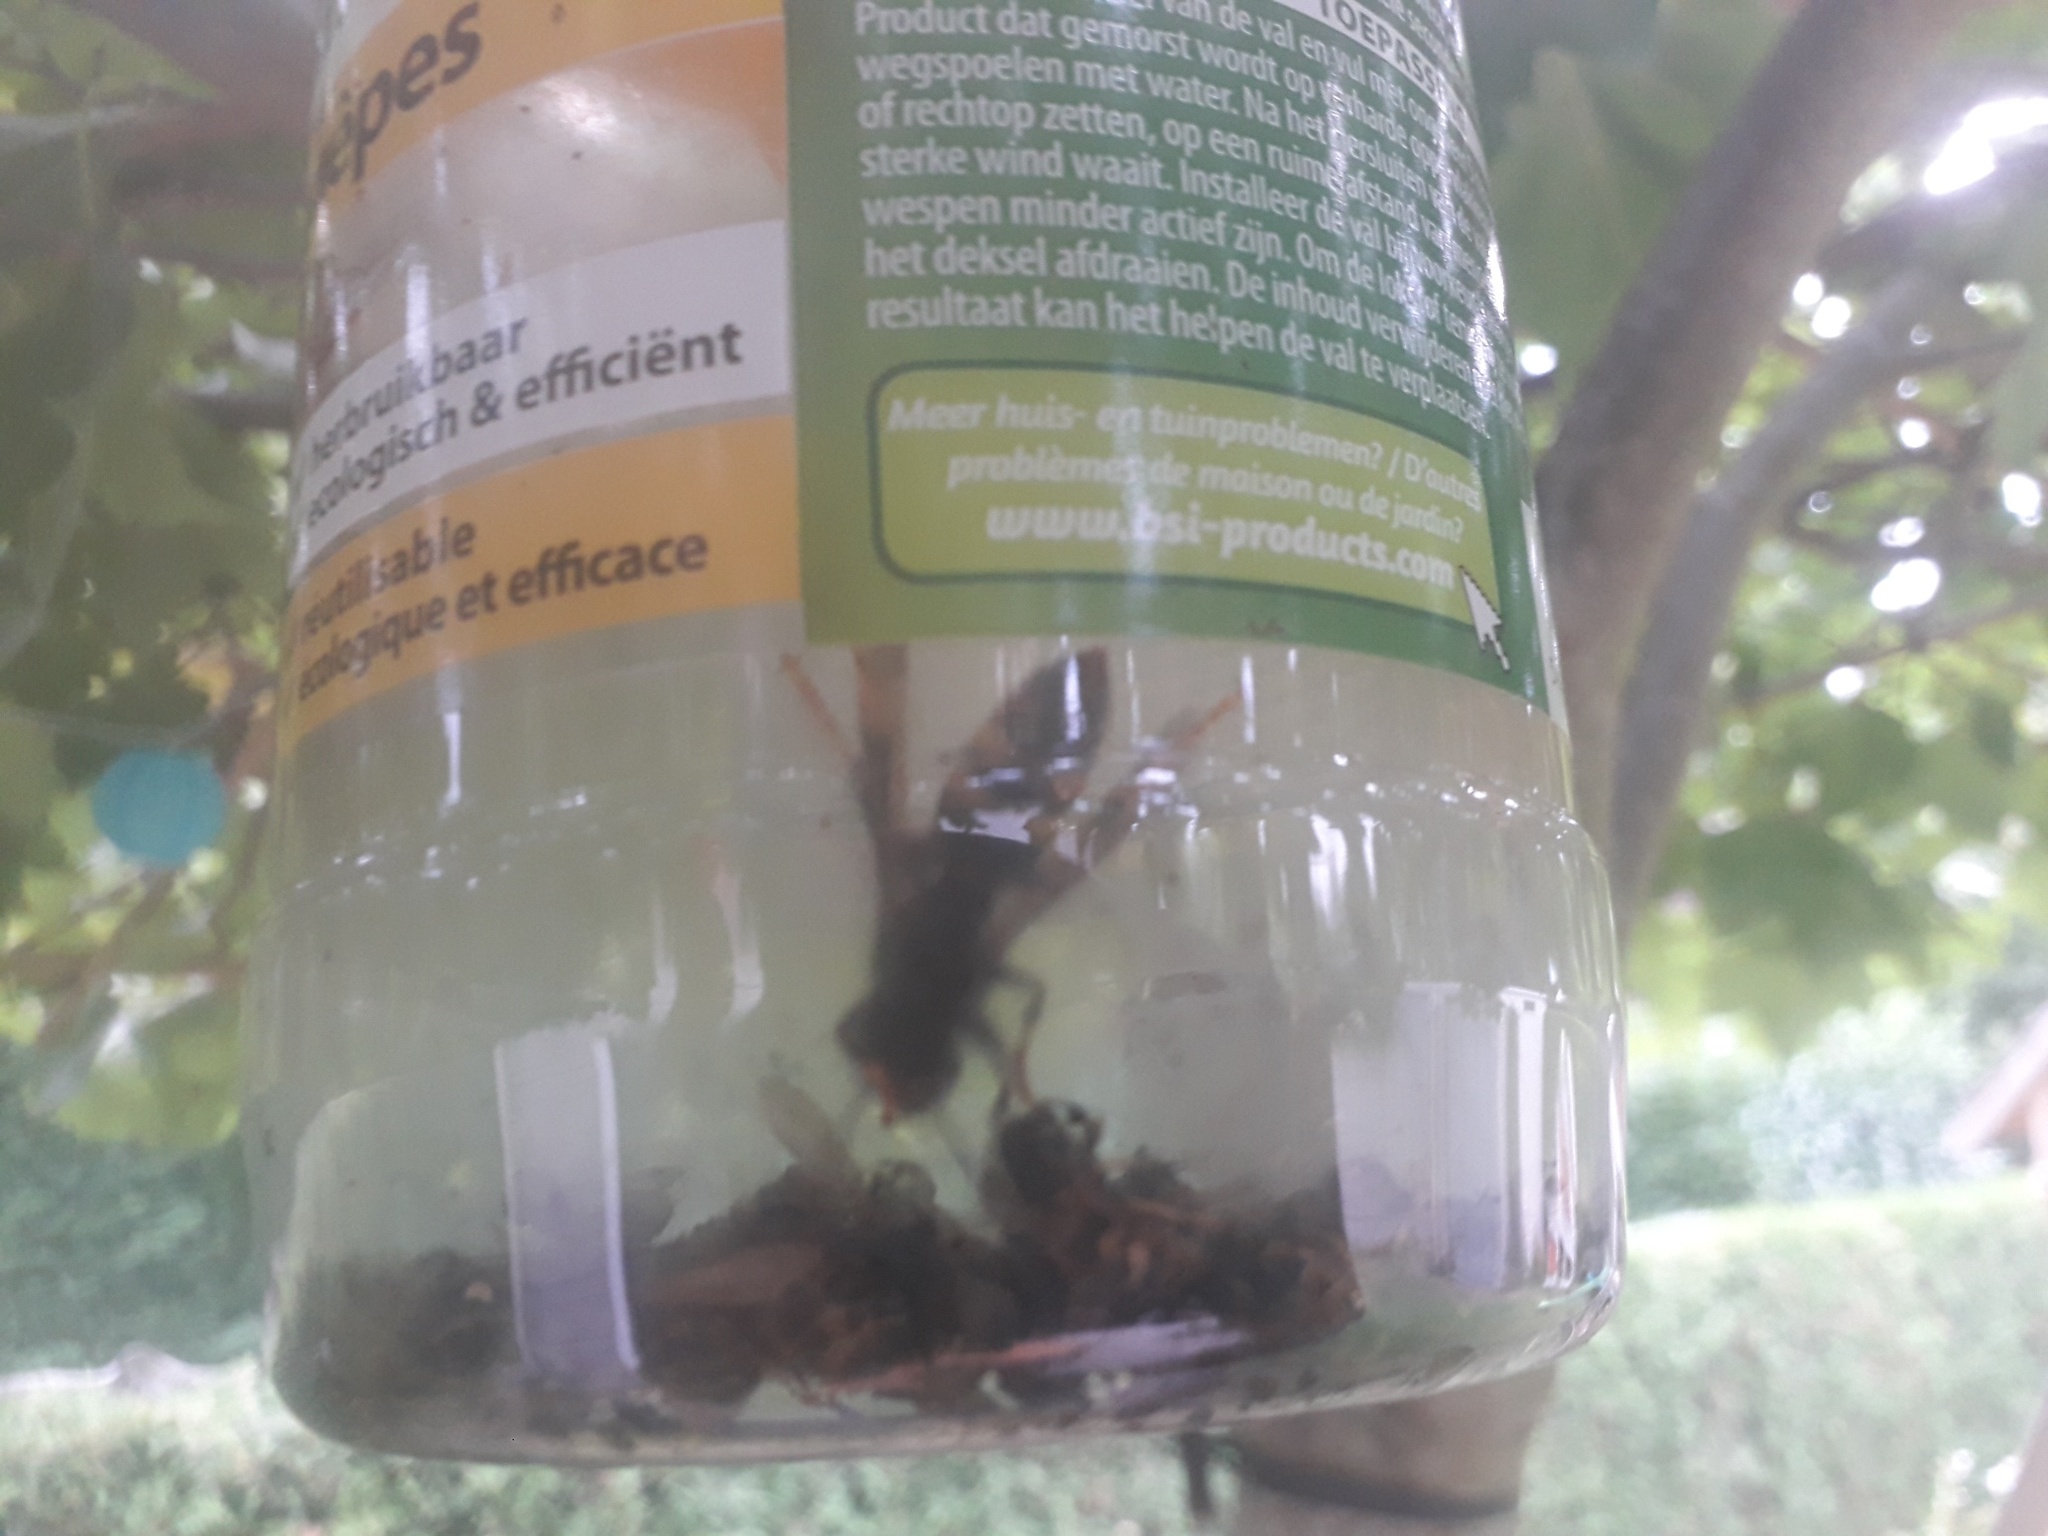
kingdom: Animalia
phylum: Arthropoda
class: Insecta
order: Hymenoptera
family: Vespidae
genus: Vespa
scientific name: Vespa velutina
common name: Asian hornet
